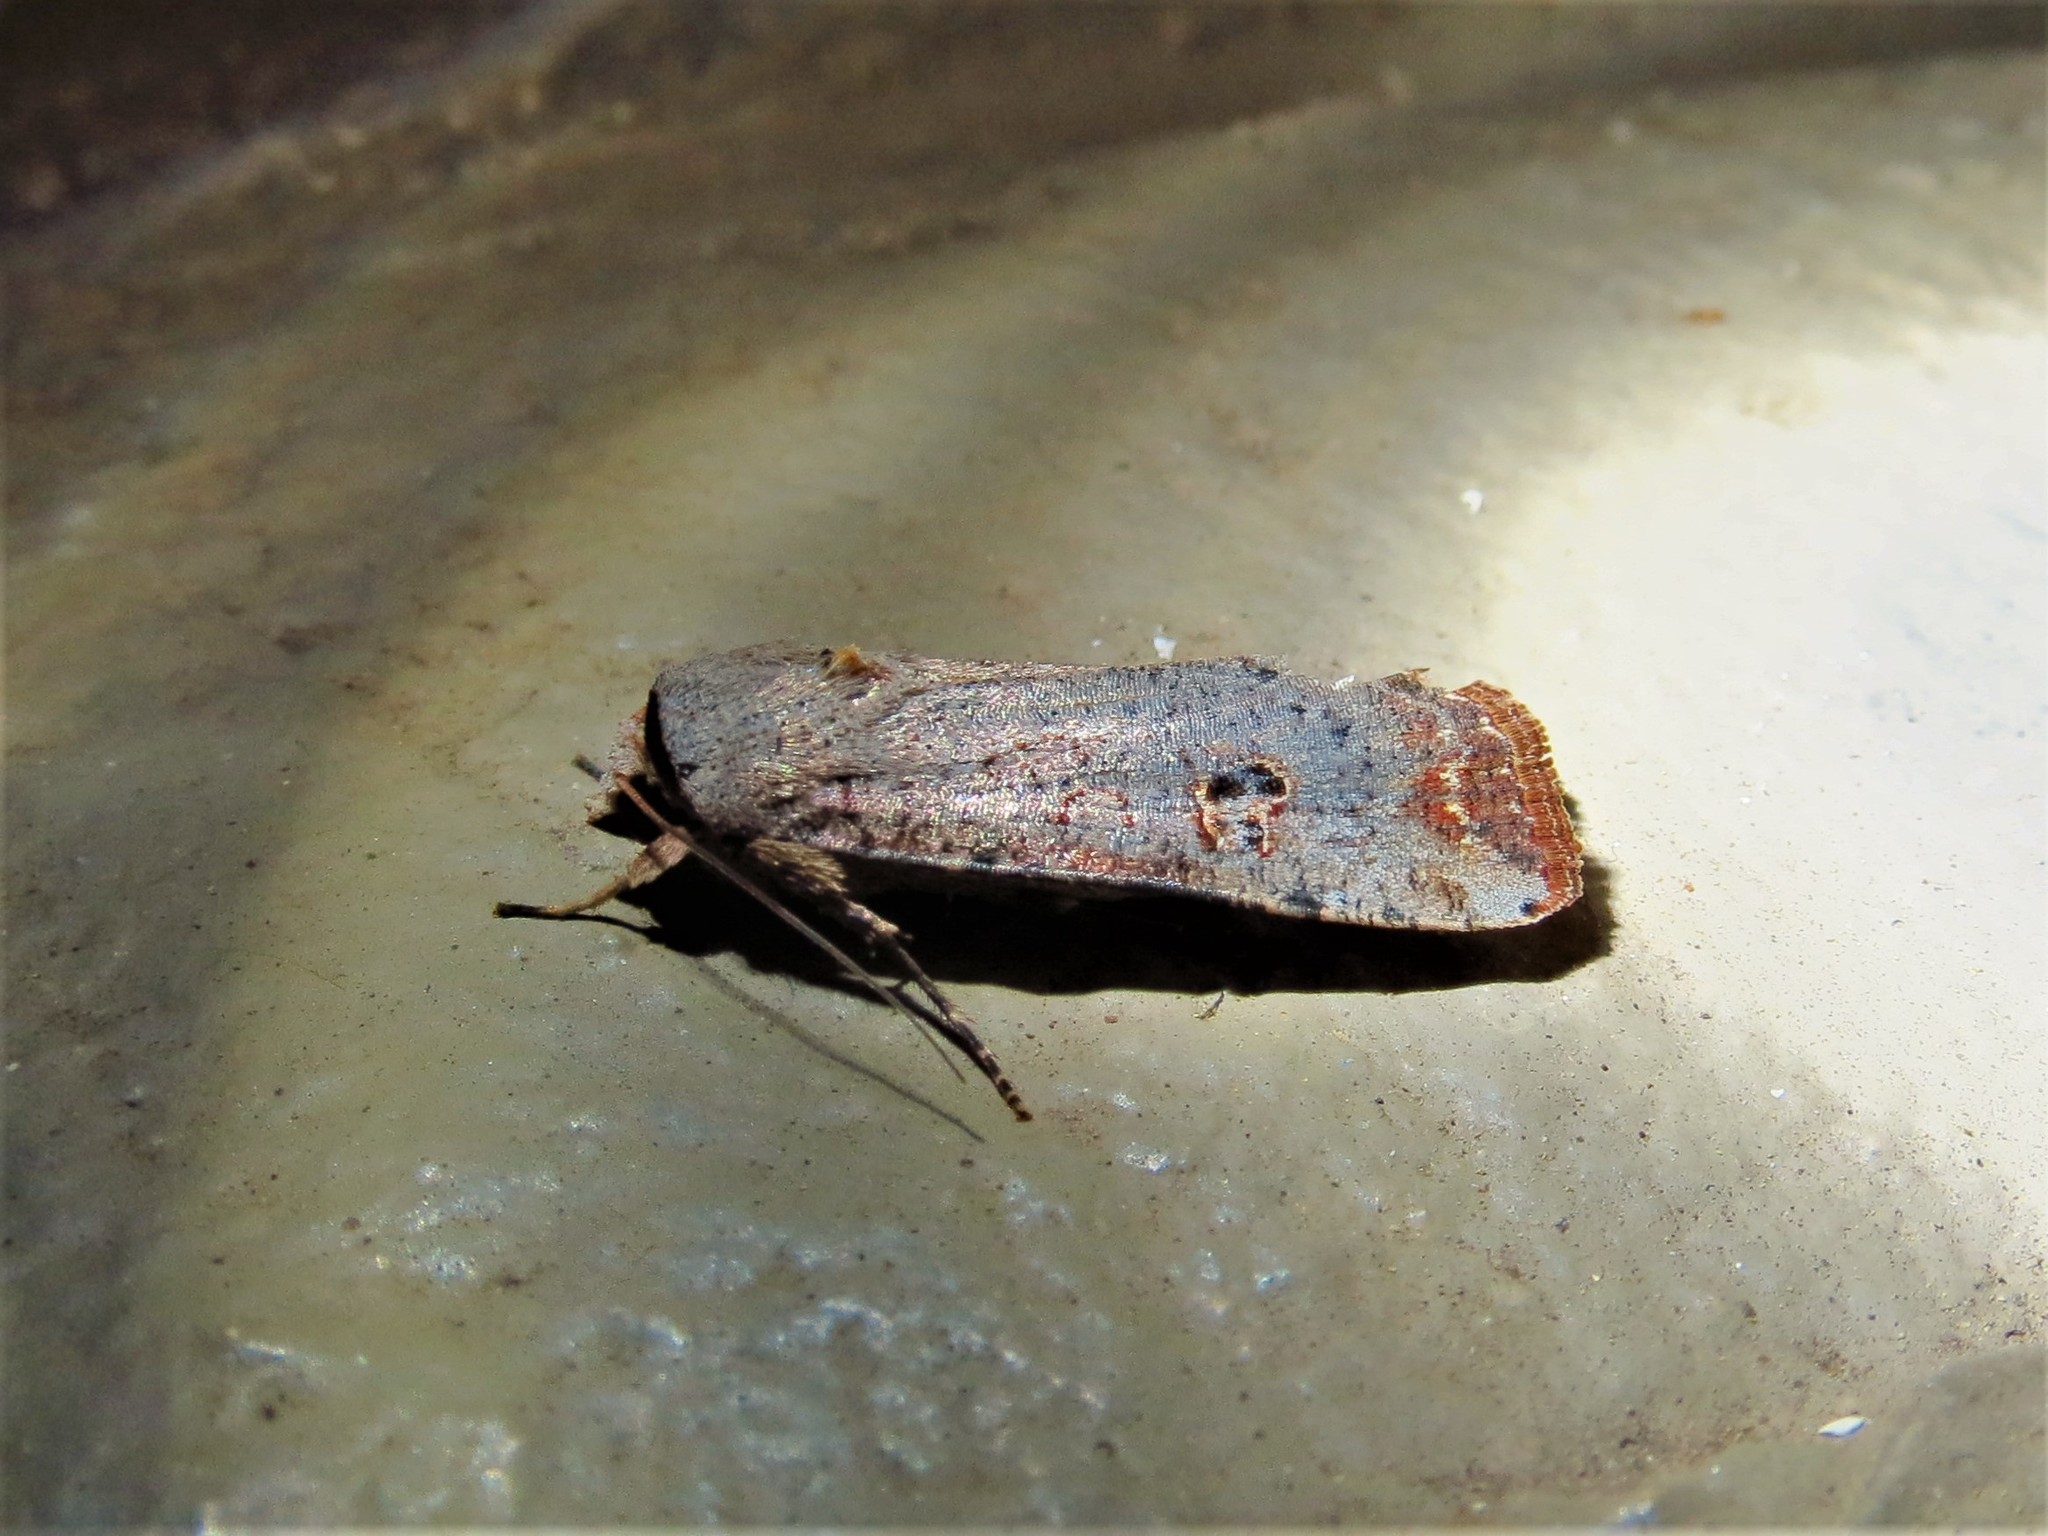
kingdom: Animalia
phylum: Arthropoda
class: Insecta
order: Lepidoptera
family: Noctuidae
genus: Anicla
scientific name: Anicla infecta
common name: Green cutworm
